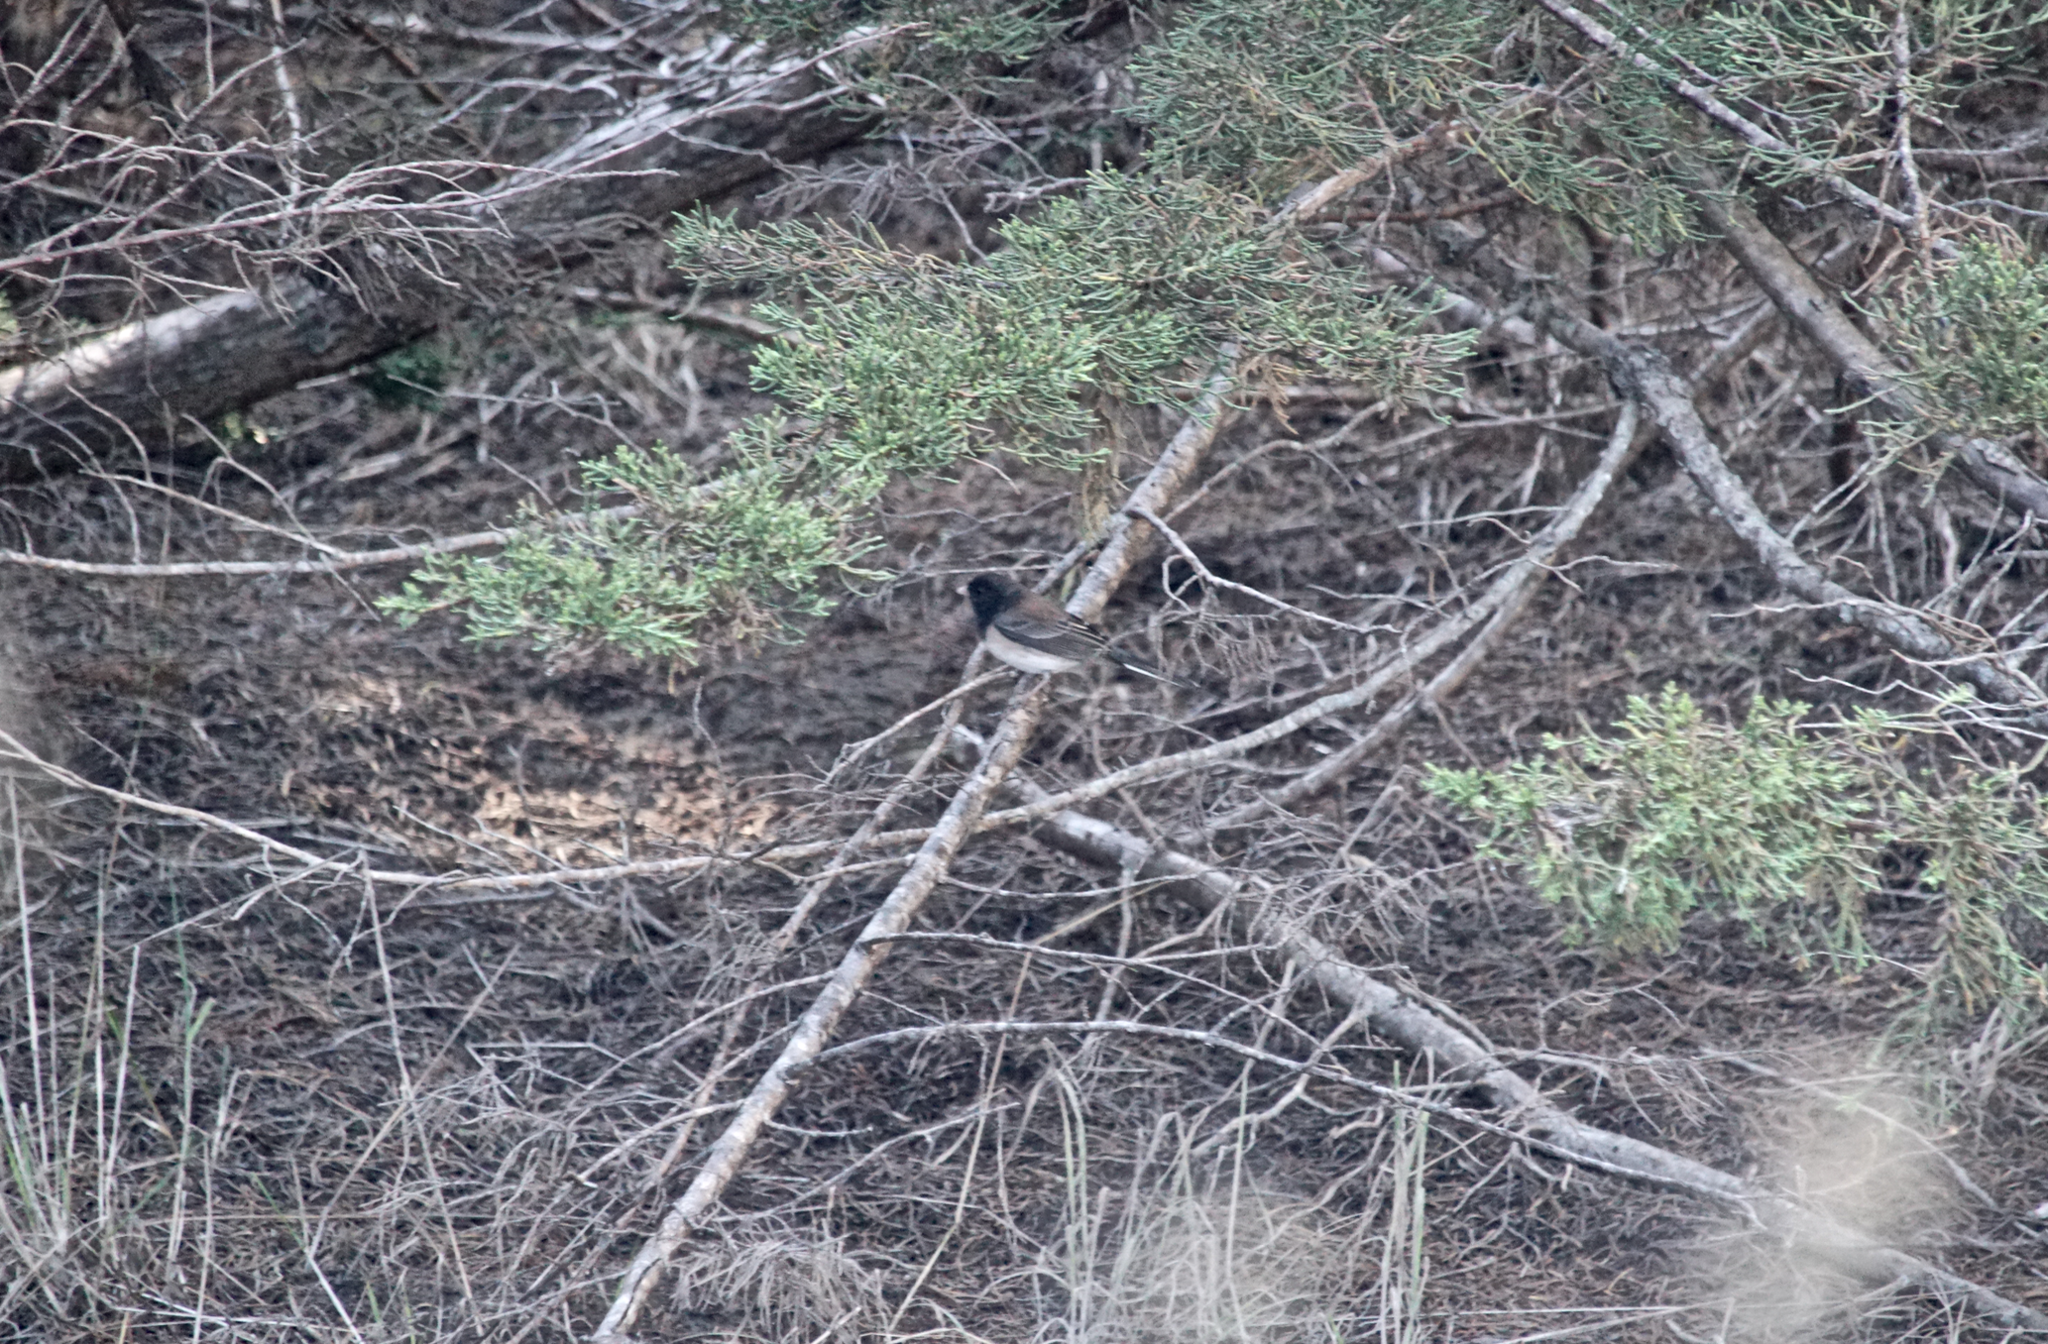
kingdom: Animalia
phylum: Chordata
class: Aves
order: Passeriformes
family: Passerellidae
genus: Junco
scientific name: Junco hyemalis
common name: Dark-eyed junco
